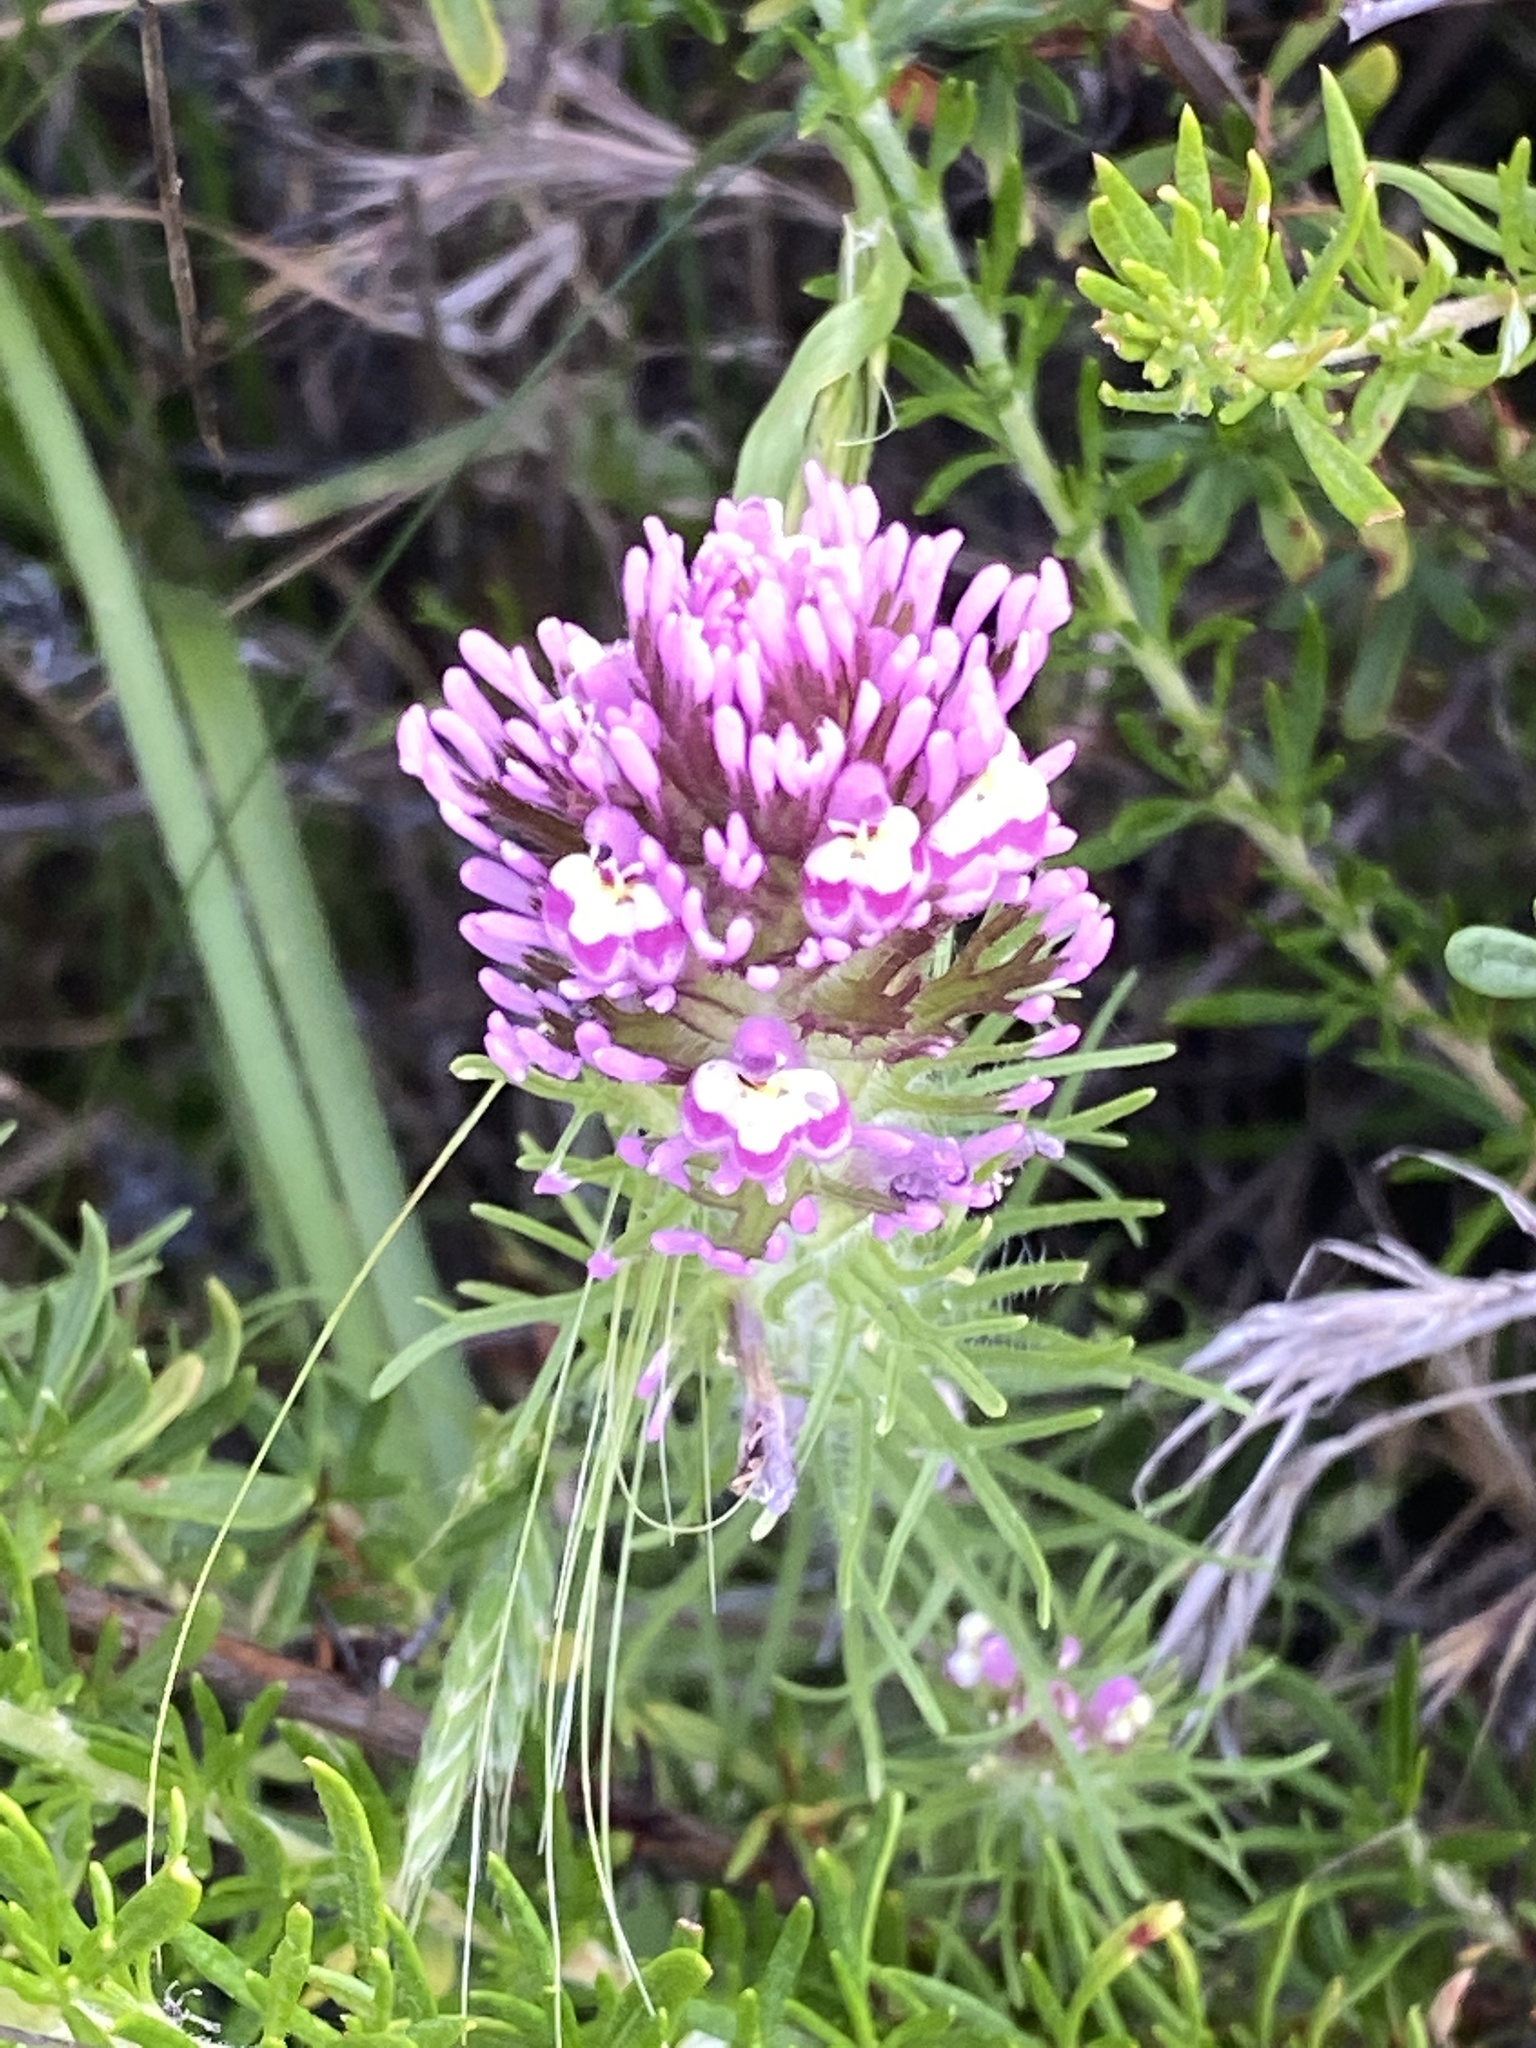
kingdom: Plantae
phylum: Tracheophyta
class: Magnoliopsida
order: Lamiales
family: Orobanchaceae
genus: Castilleja
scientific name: Castilleja exserta
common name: Purple owl-clover
